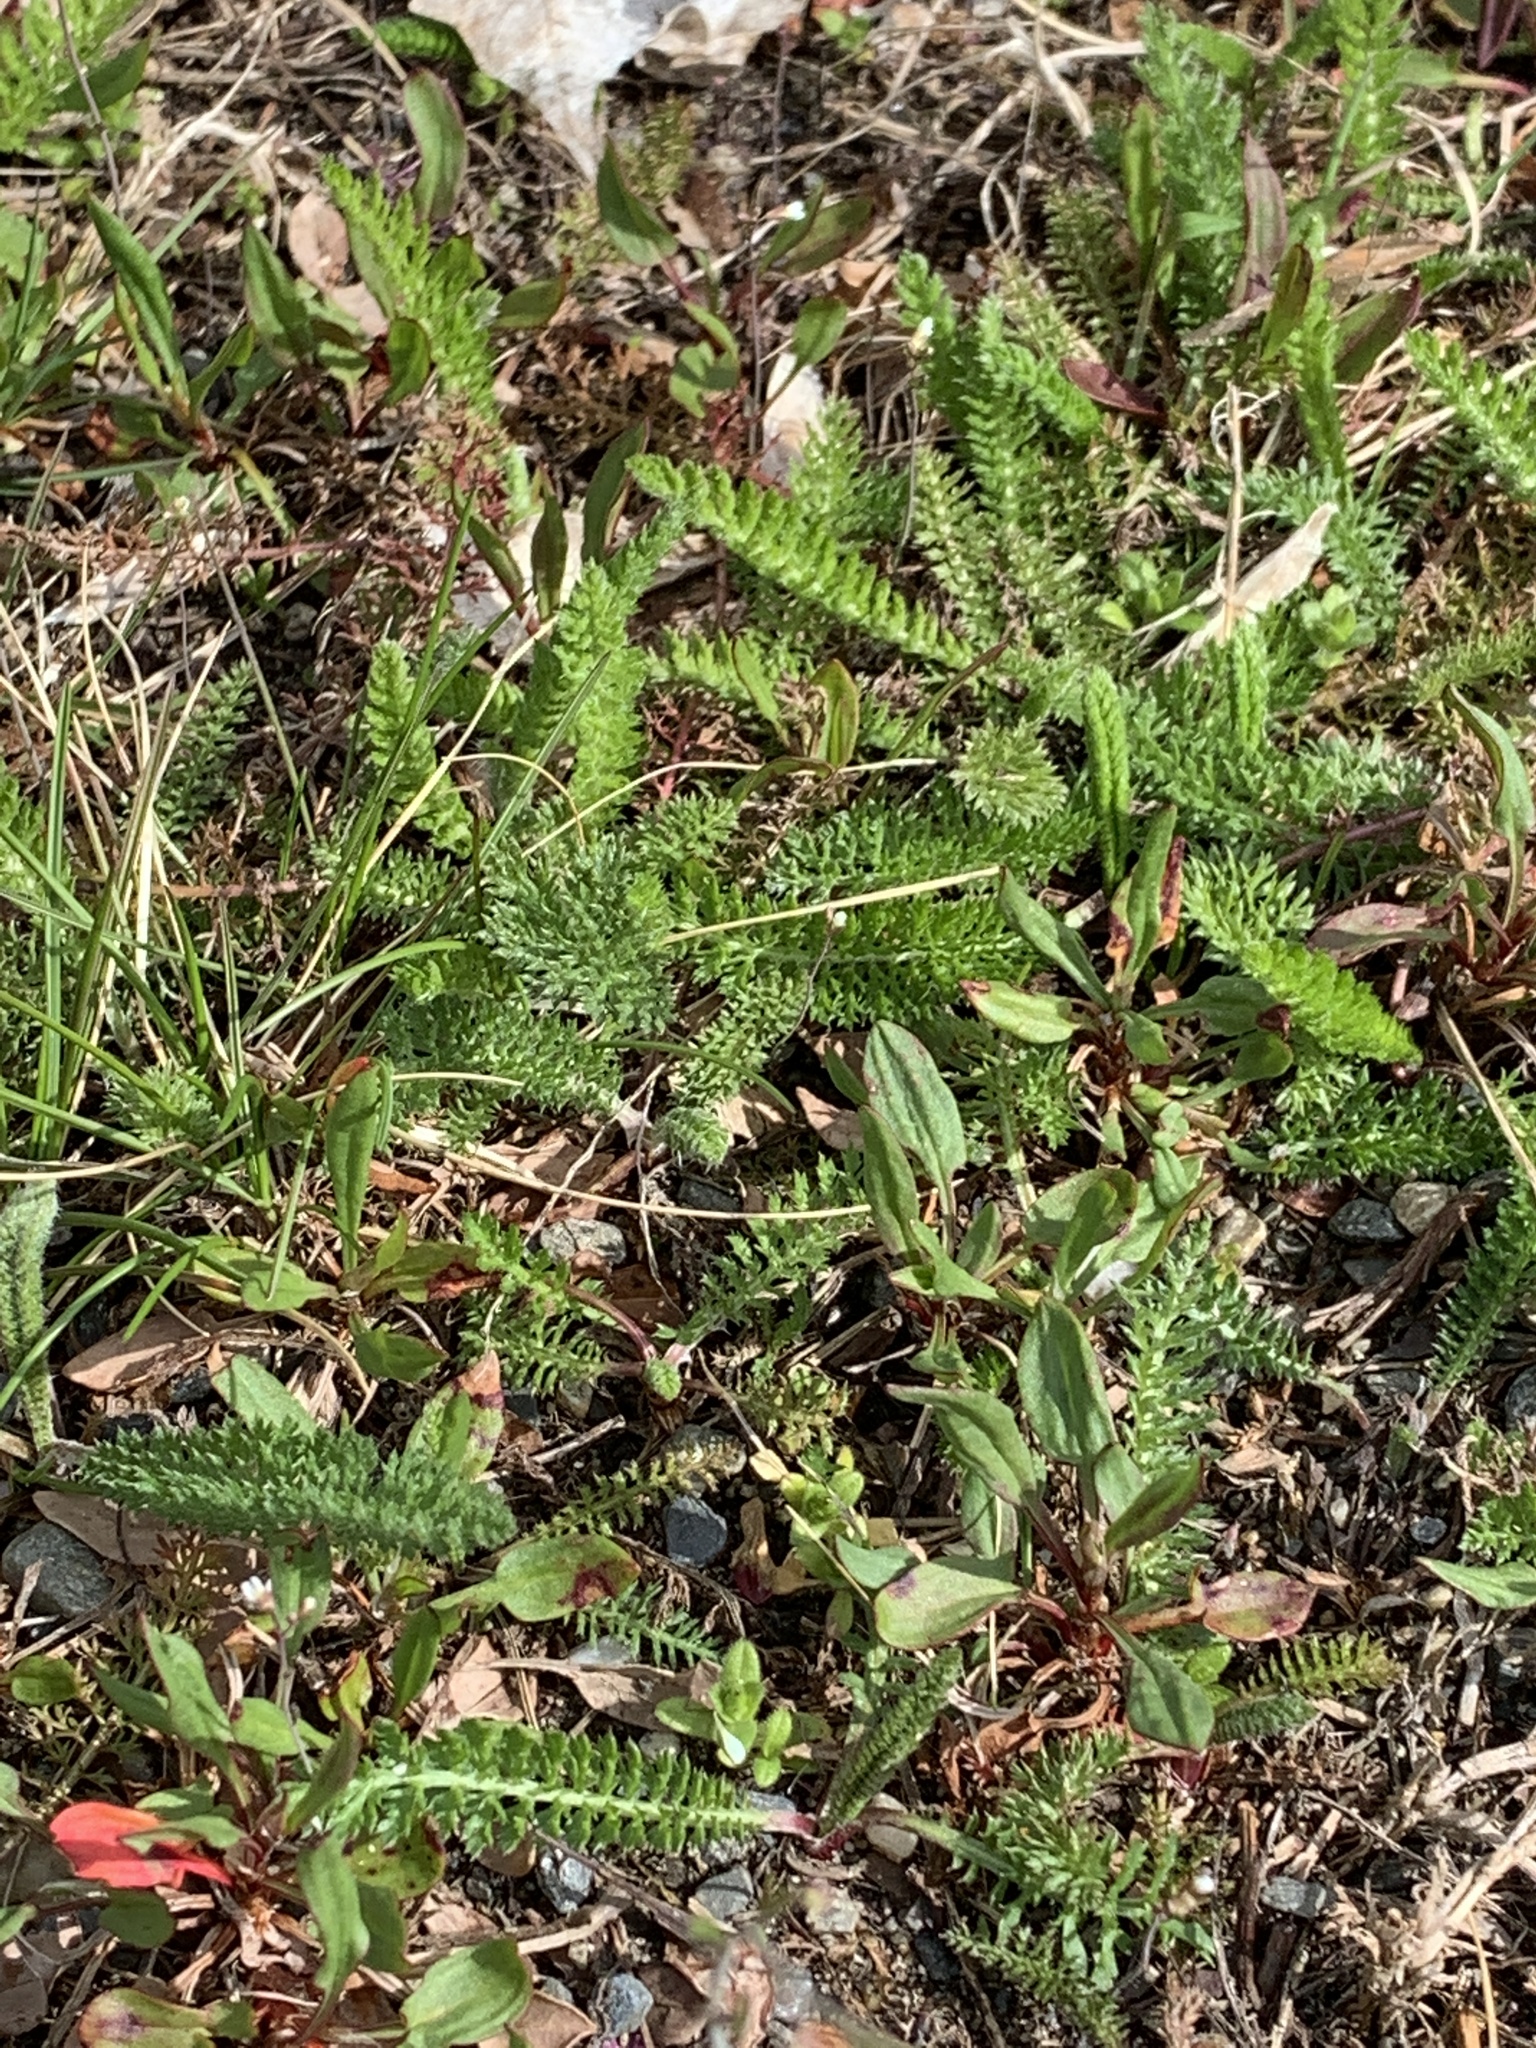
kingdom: Plantae
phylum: Tracheophyta
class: Magnoliopsida
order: Asterales
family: Asteraceae
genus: Achillea
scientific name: Achillea millefolium
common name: Yarrow
